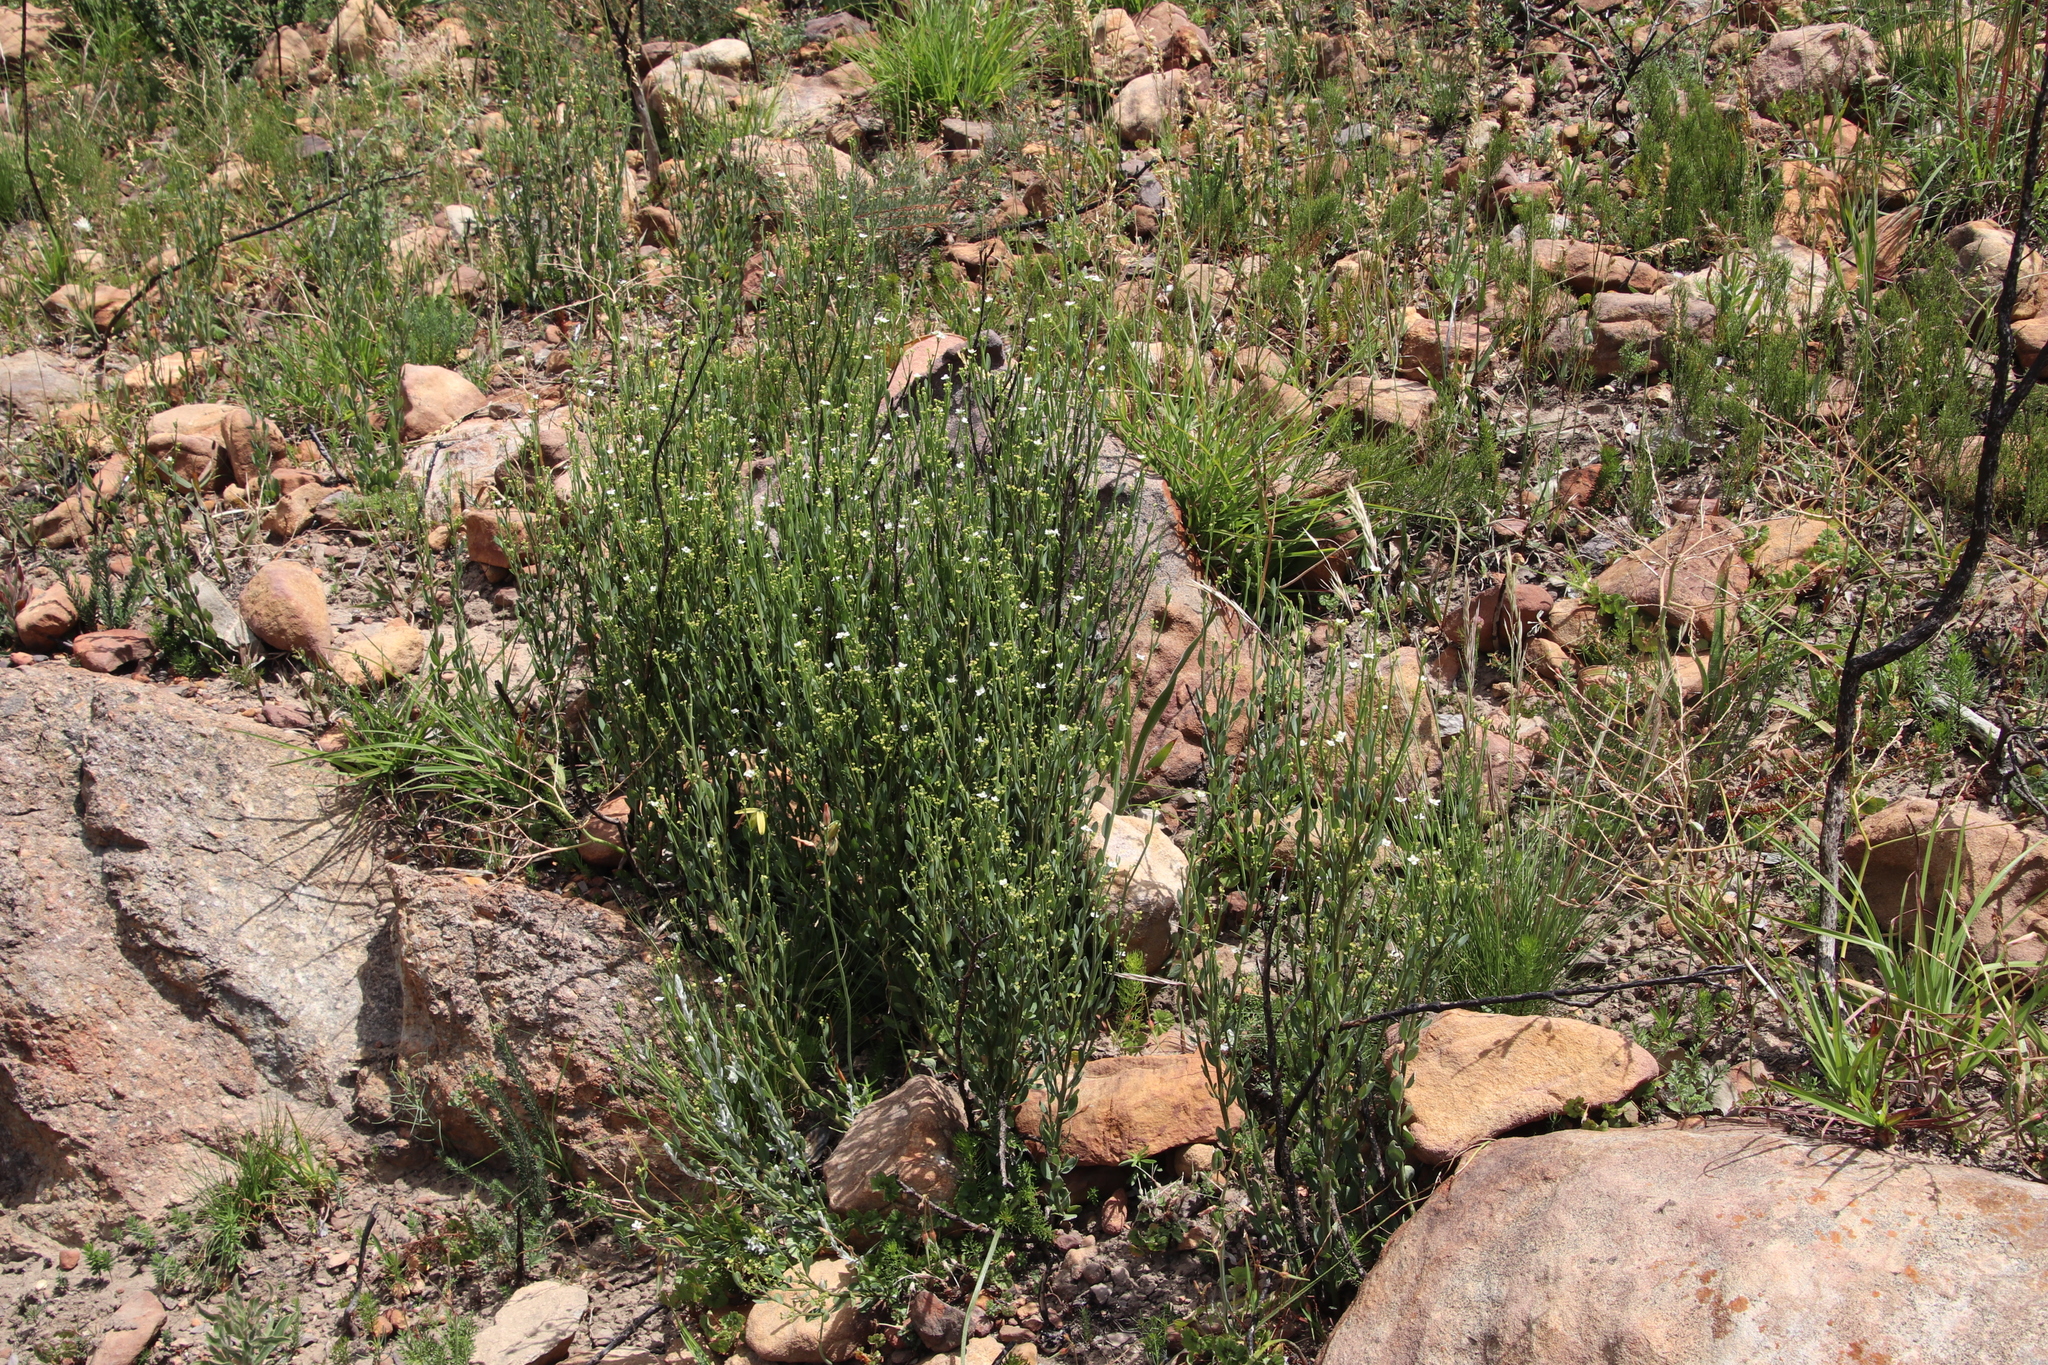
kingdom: Plantae
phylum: Tracheophyta
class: Magnoliopsida
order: Solanales
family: Montiniaceae
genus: Montinia
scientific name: Montinia caryophyllacea
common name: Wild clove-bush
